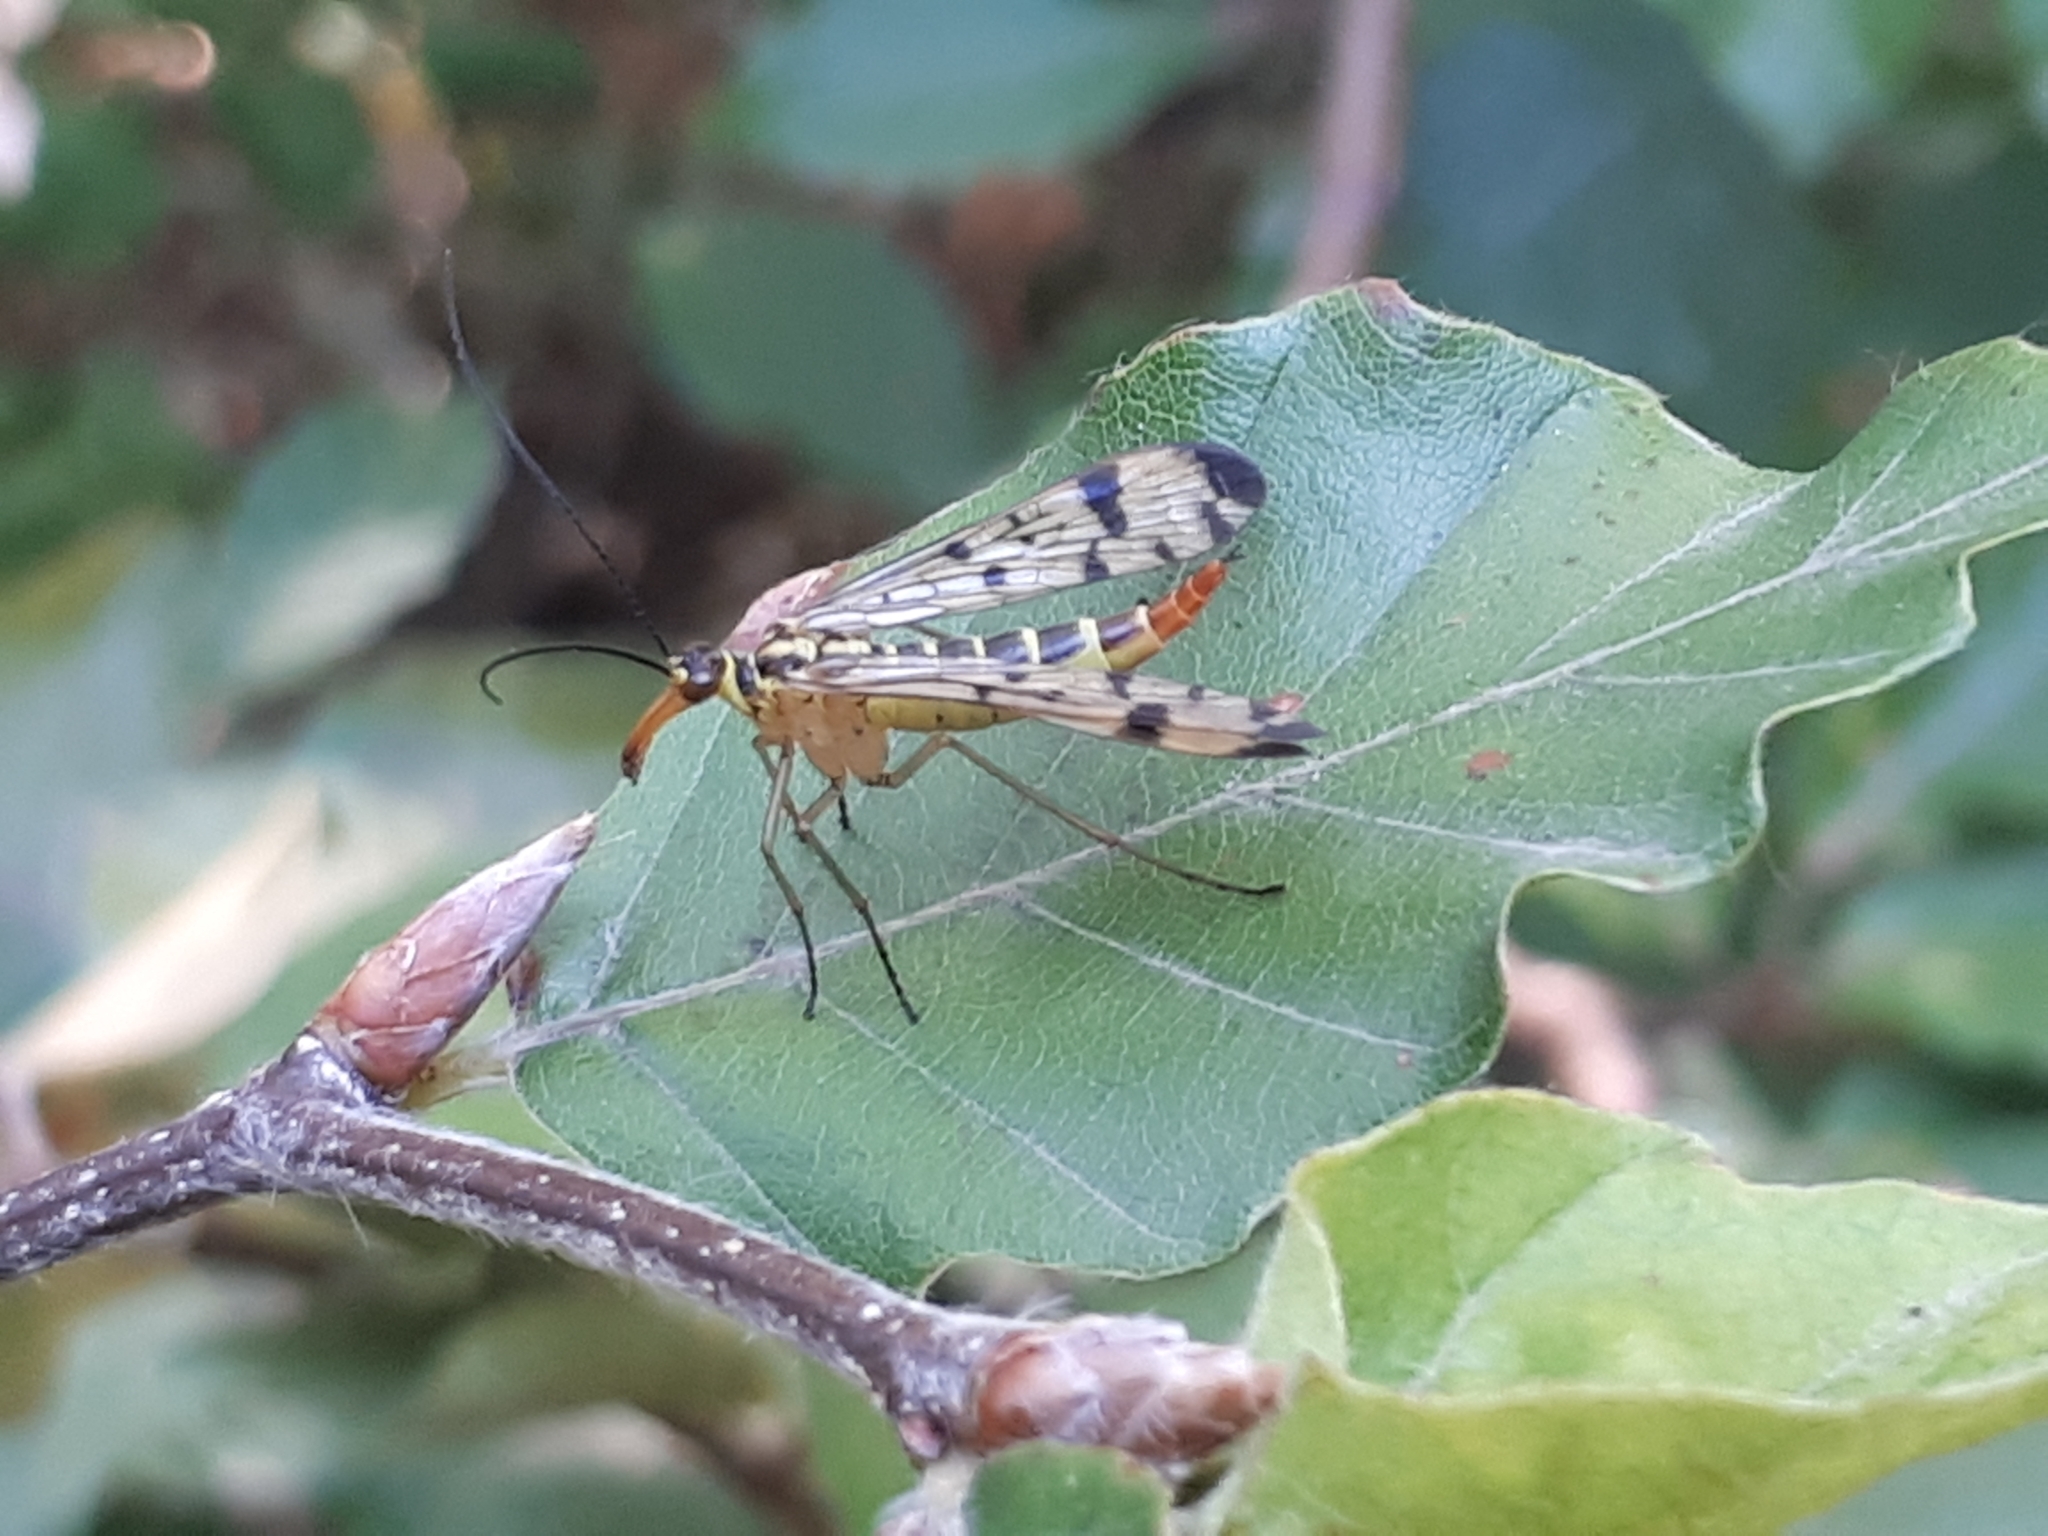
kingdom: Animalia
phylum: Arthropoda
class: Insecta
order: Mecoptera
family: Panorpidae
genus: Panorpa
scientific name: Panorpa germanica
